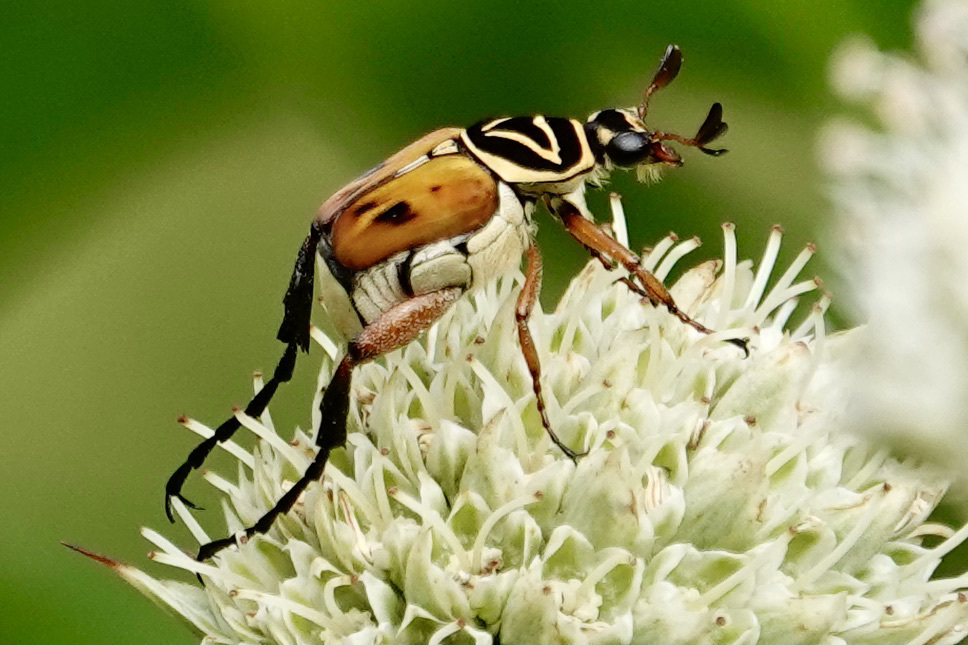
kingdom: Animalia
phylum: Arthropoda
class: Insecta
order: Coleoptera
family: Scarabaeidae
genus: Trigonopeltastes
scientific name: Trigonopeltastes delta
